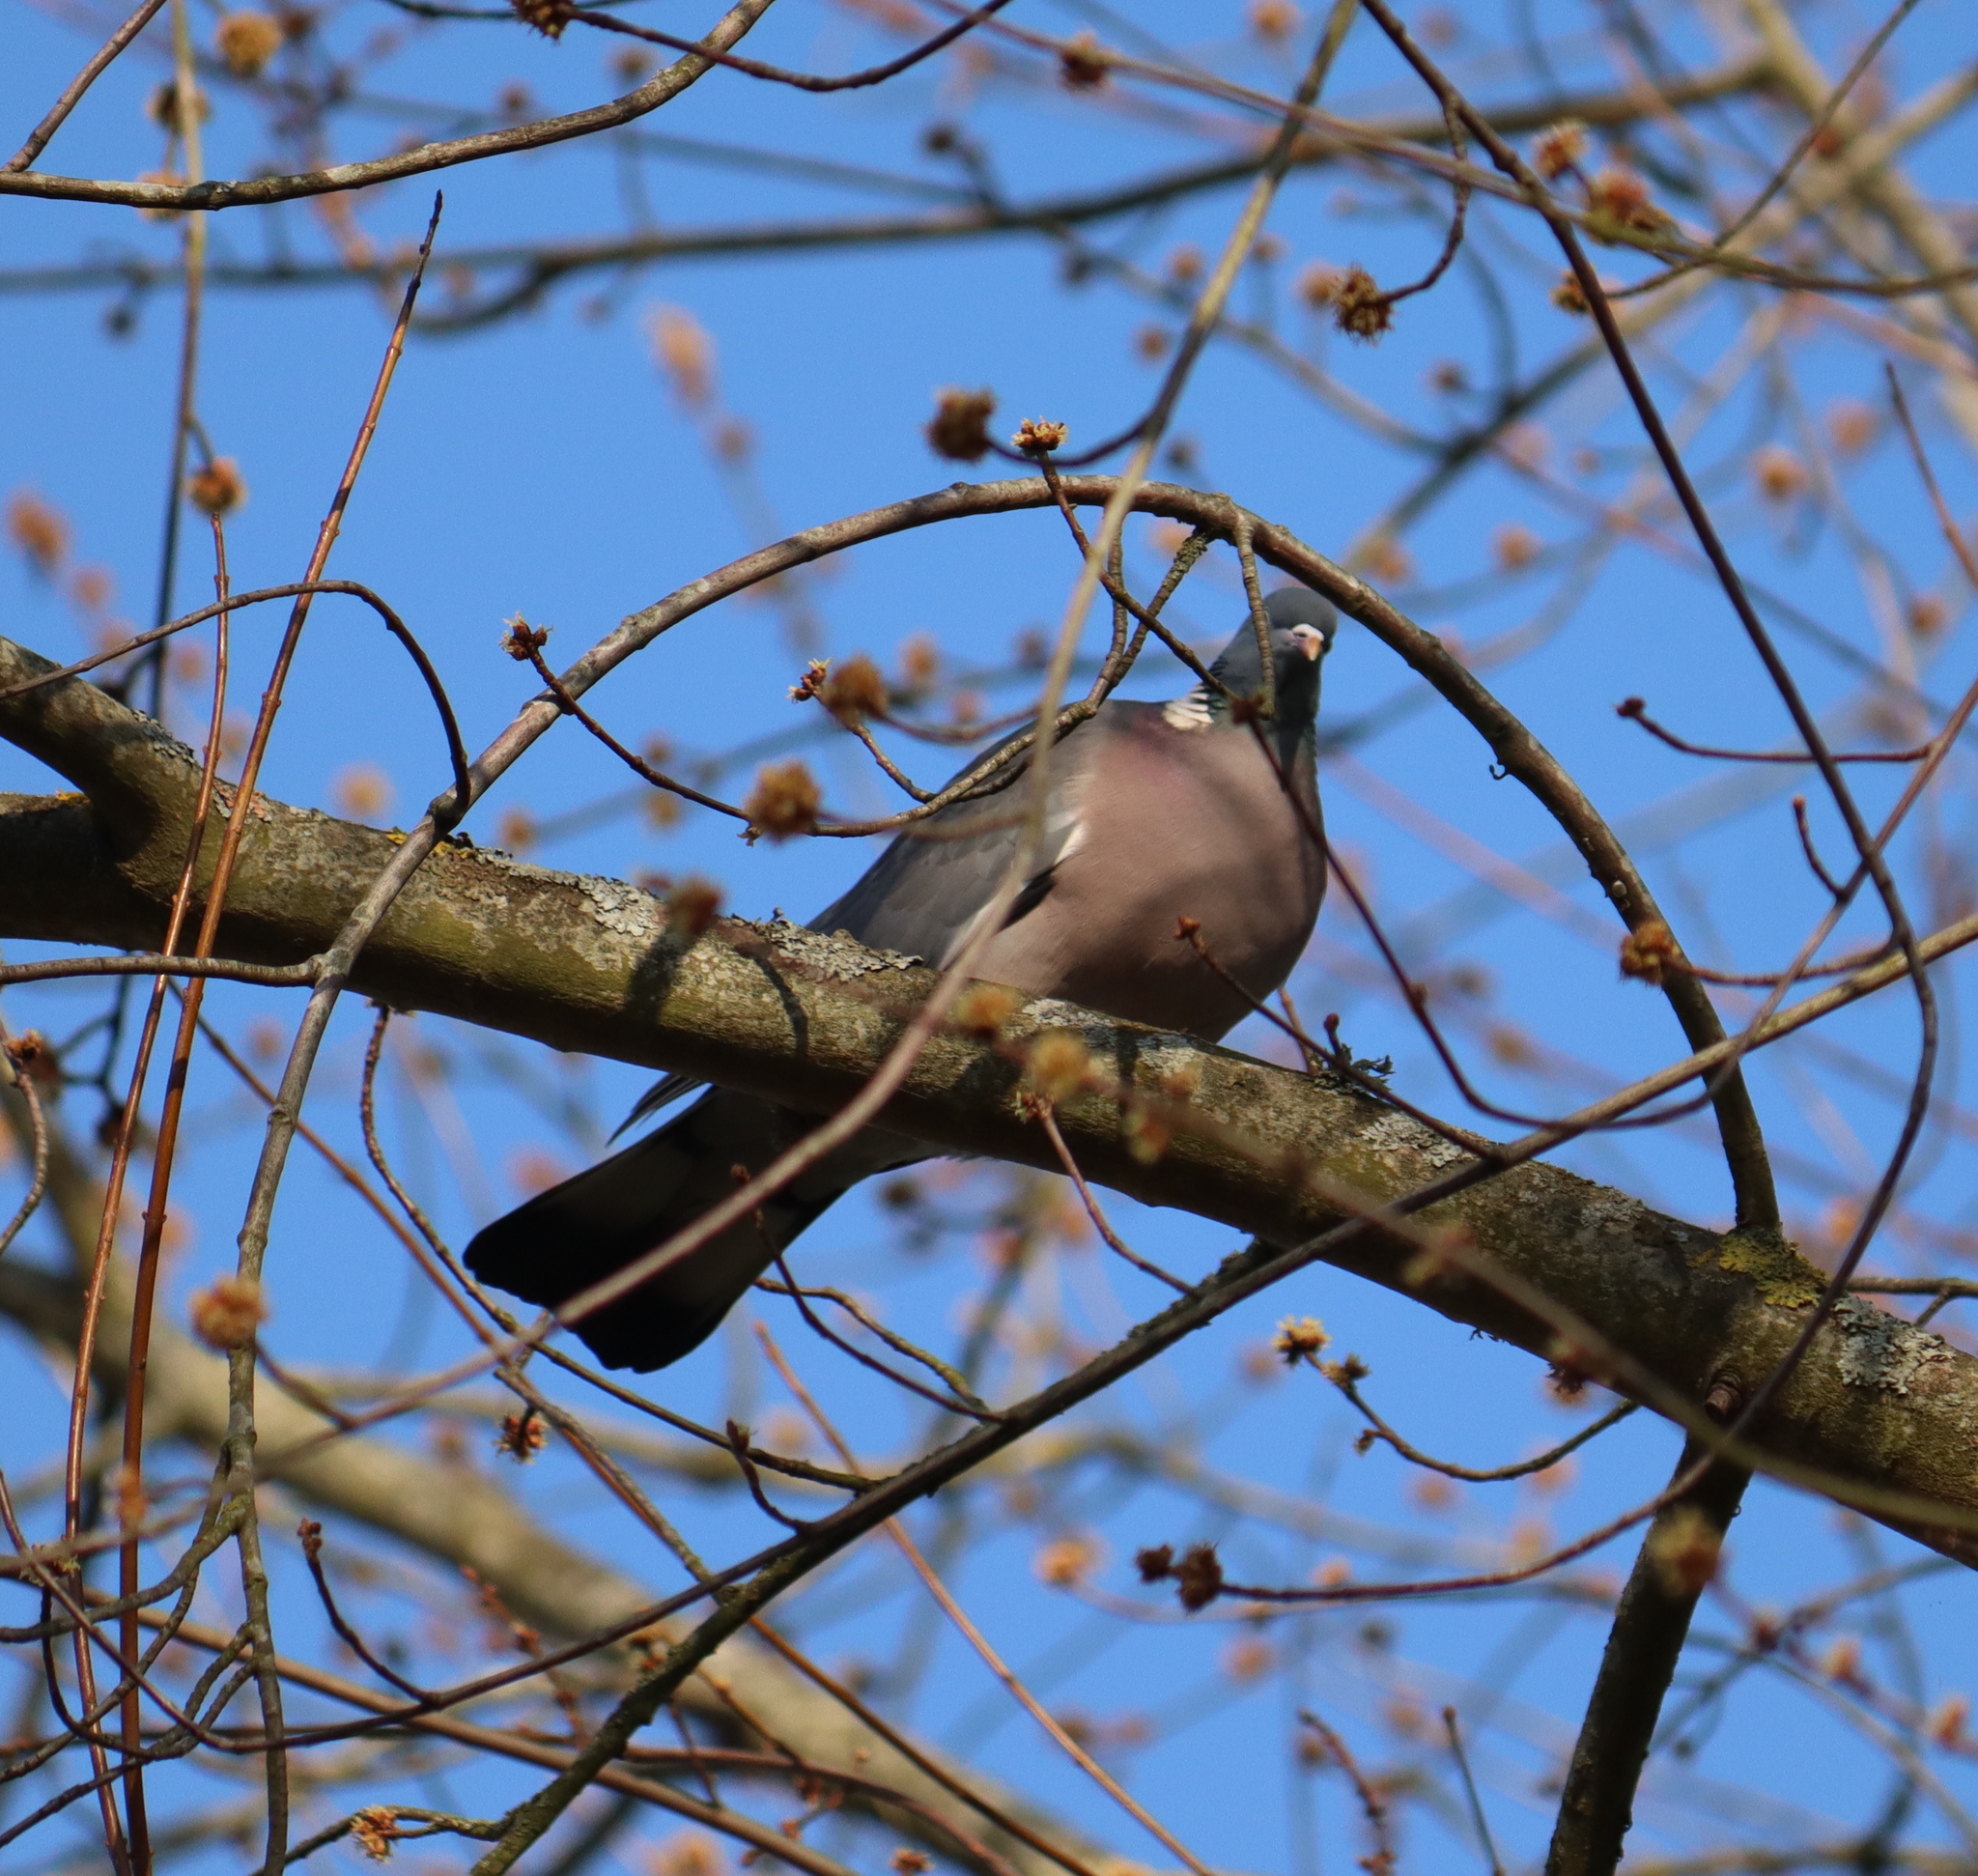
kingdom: Animalia
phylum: Chordata
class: Aves
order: Columbiformes
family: Columbidae
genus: Columba
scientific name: Columba palumbus
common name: Common wood pigeon
